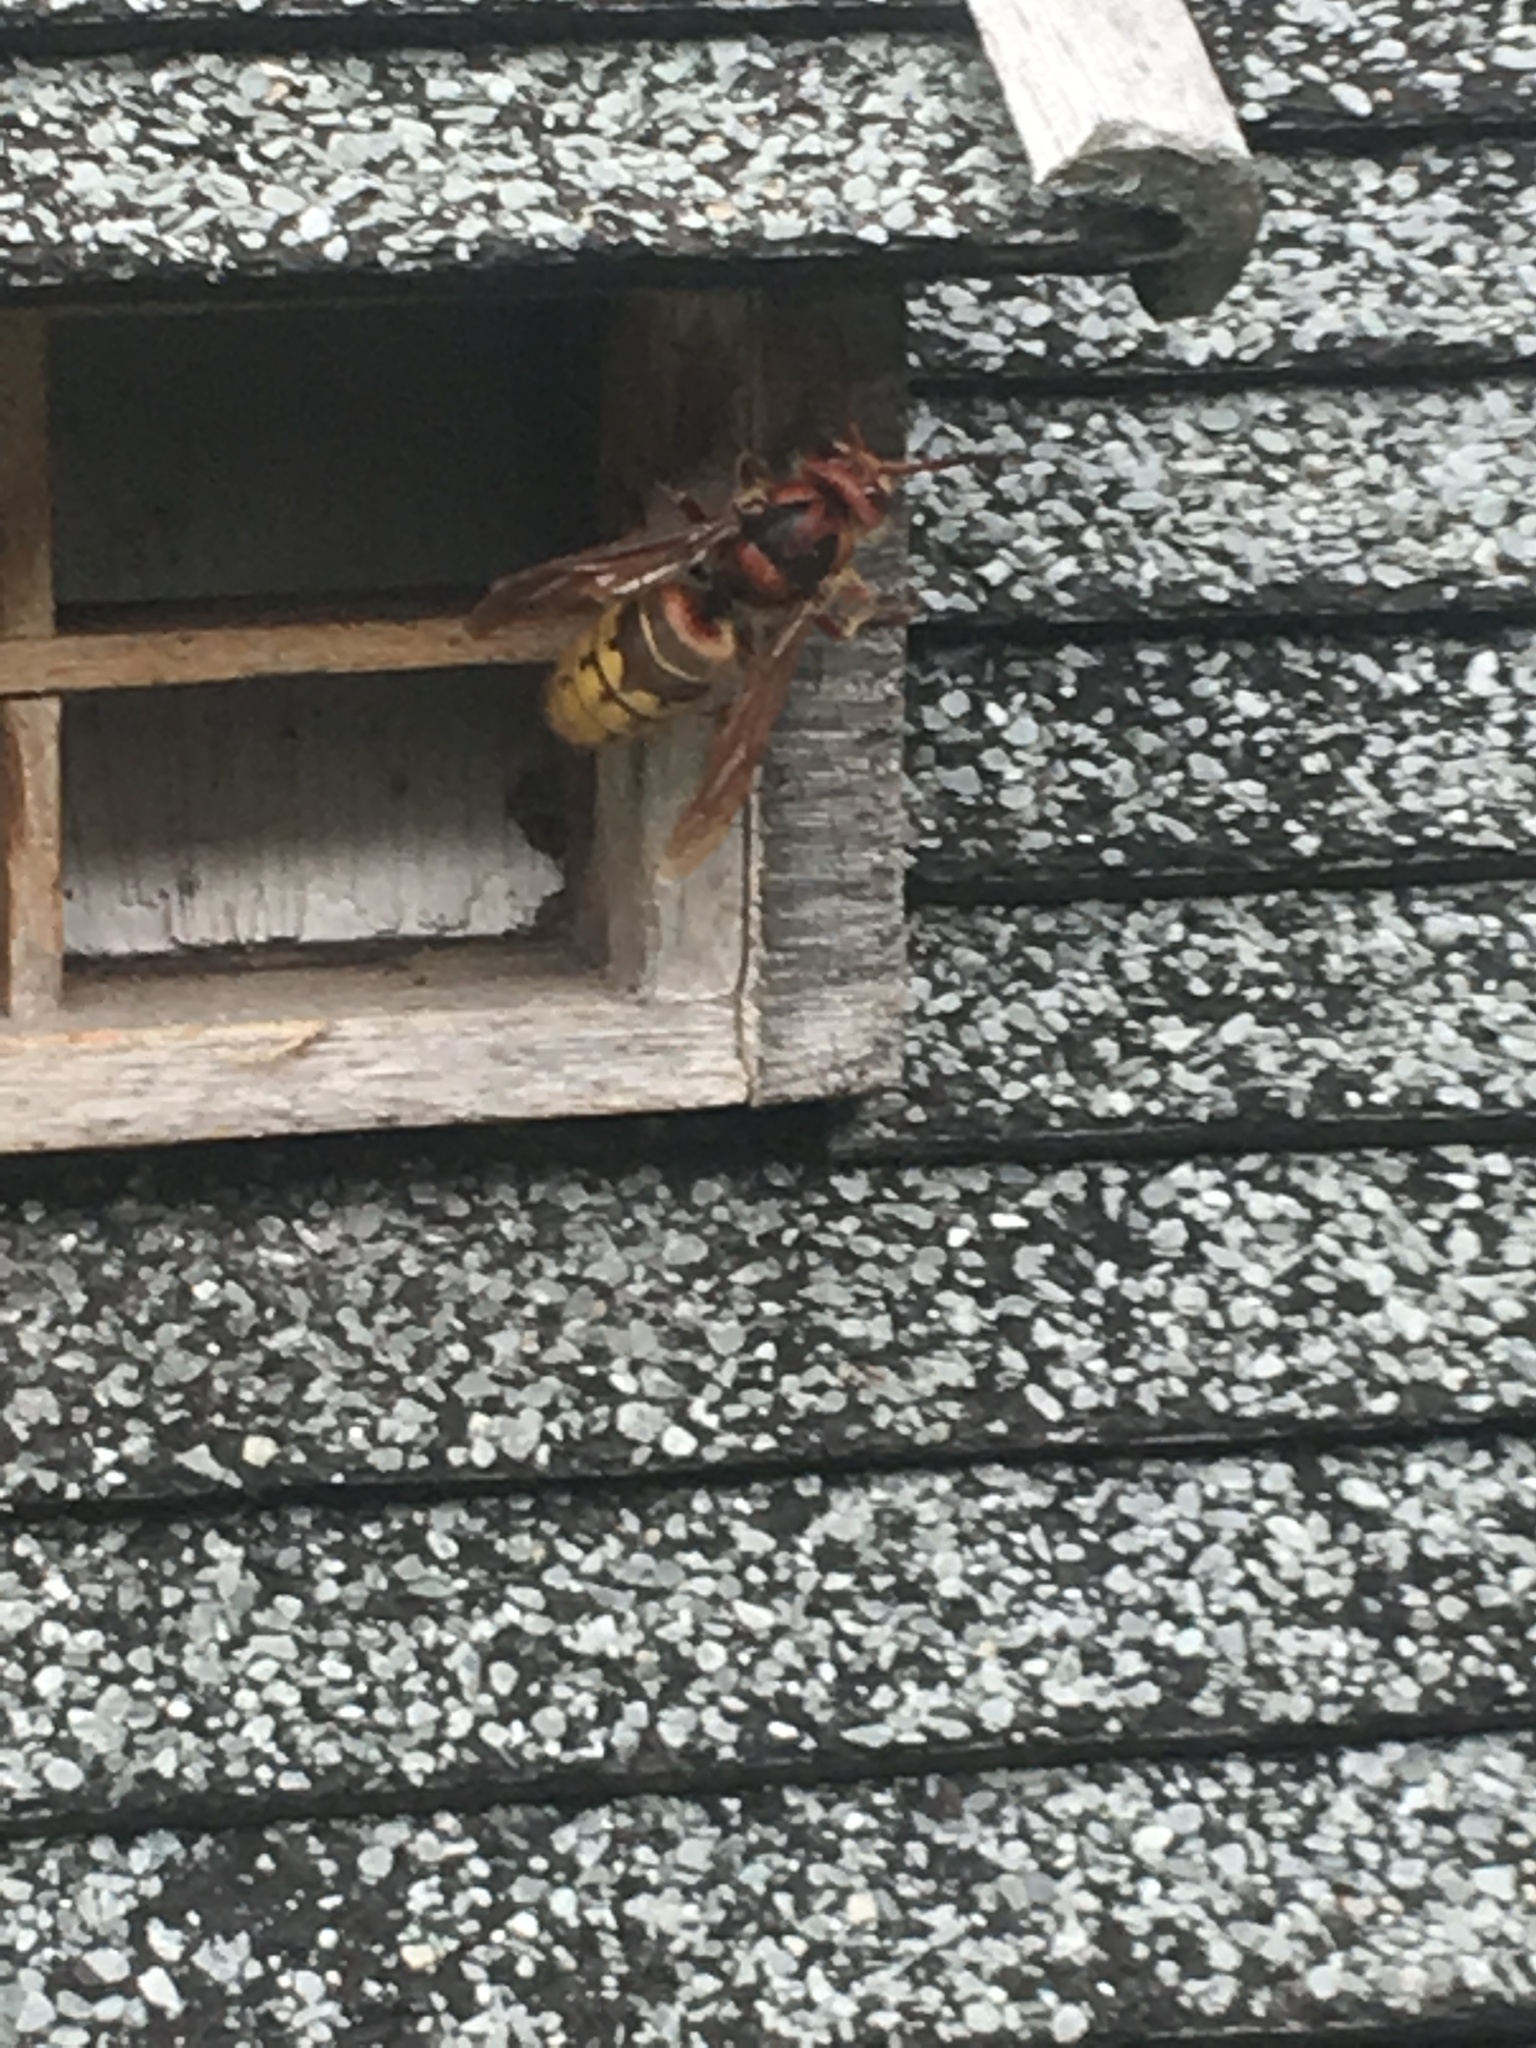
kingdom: Animalia
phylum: Arthropoda
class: Insecta
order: Hymenoptera
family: Vespidae
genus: Vespa
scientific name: Vespa crabro
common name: Hornet
